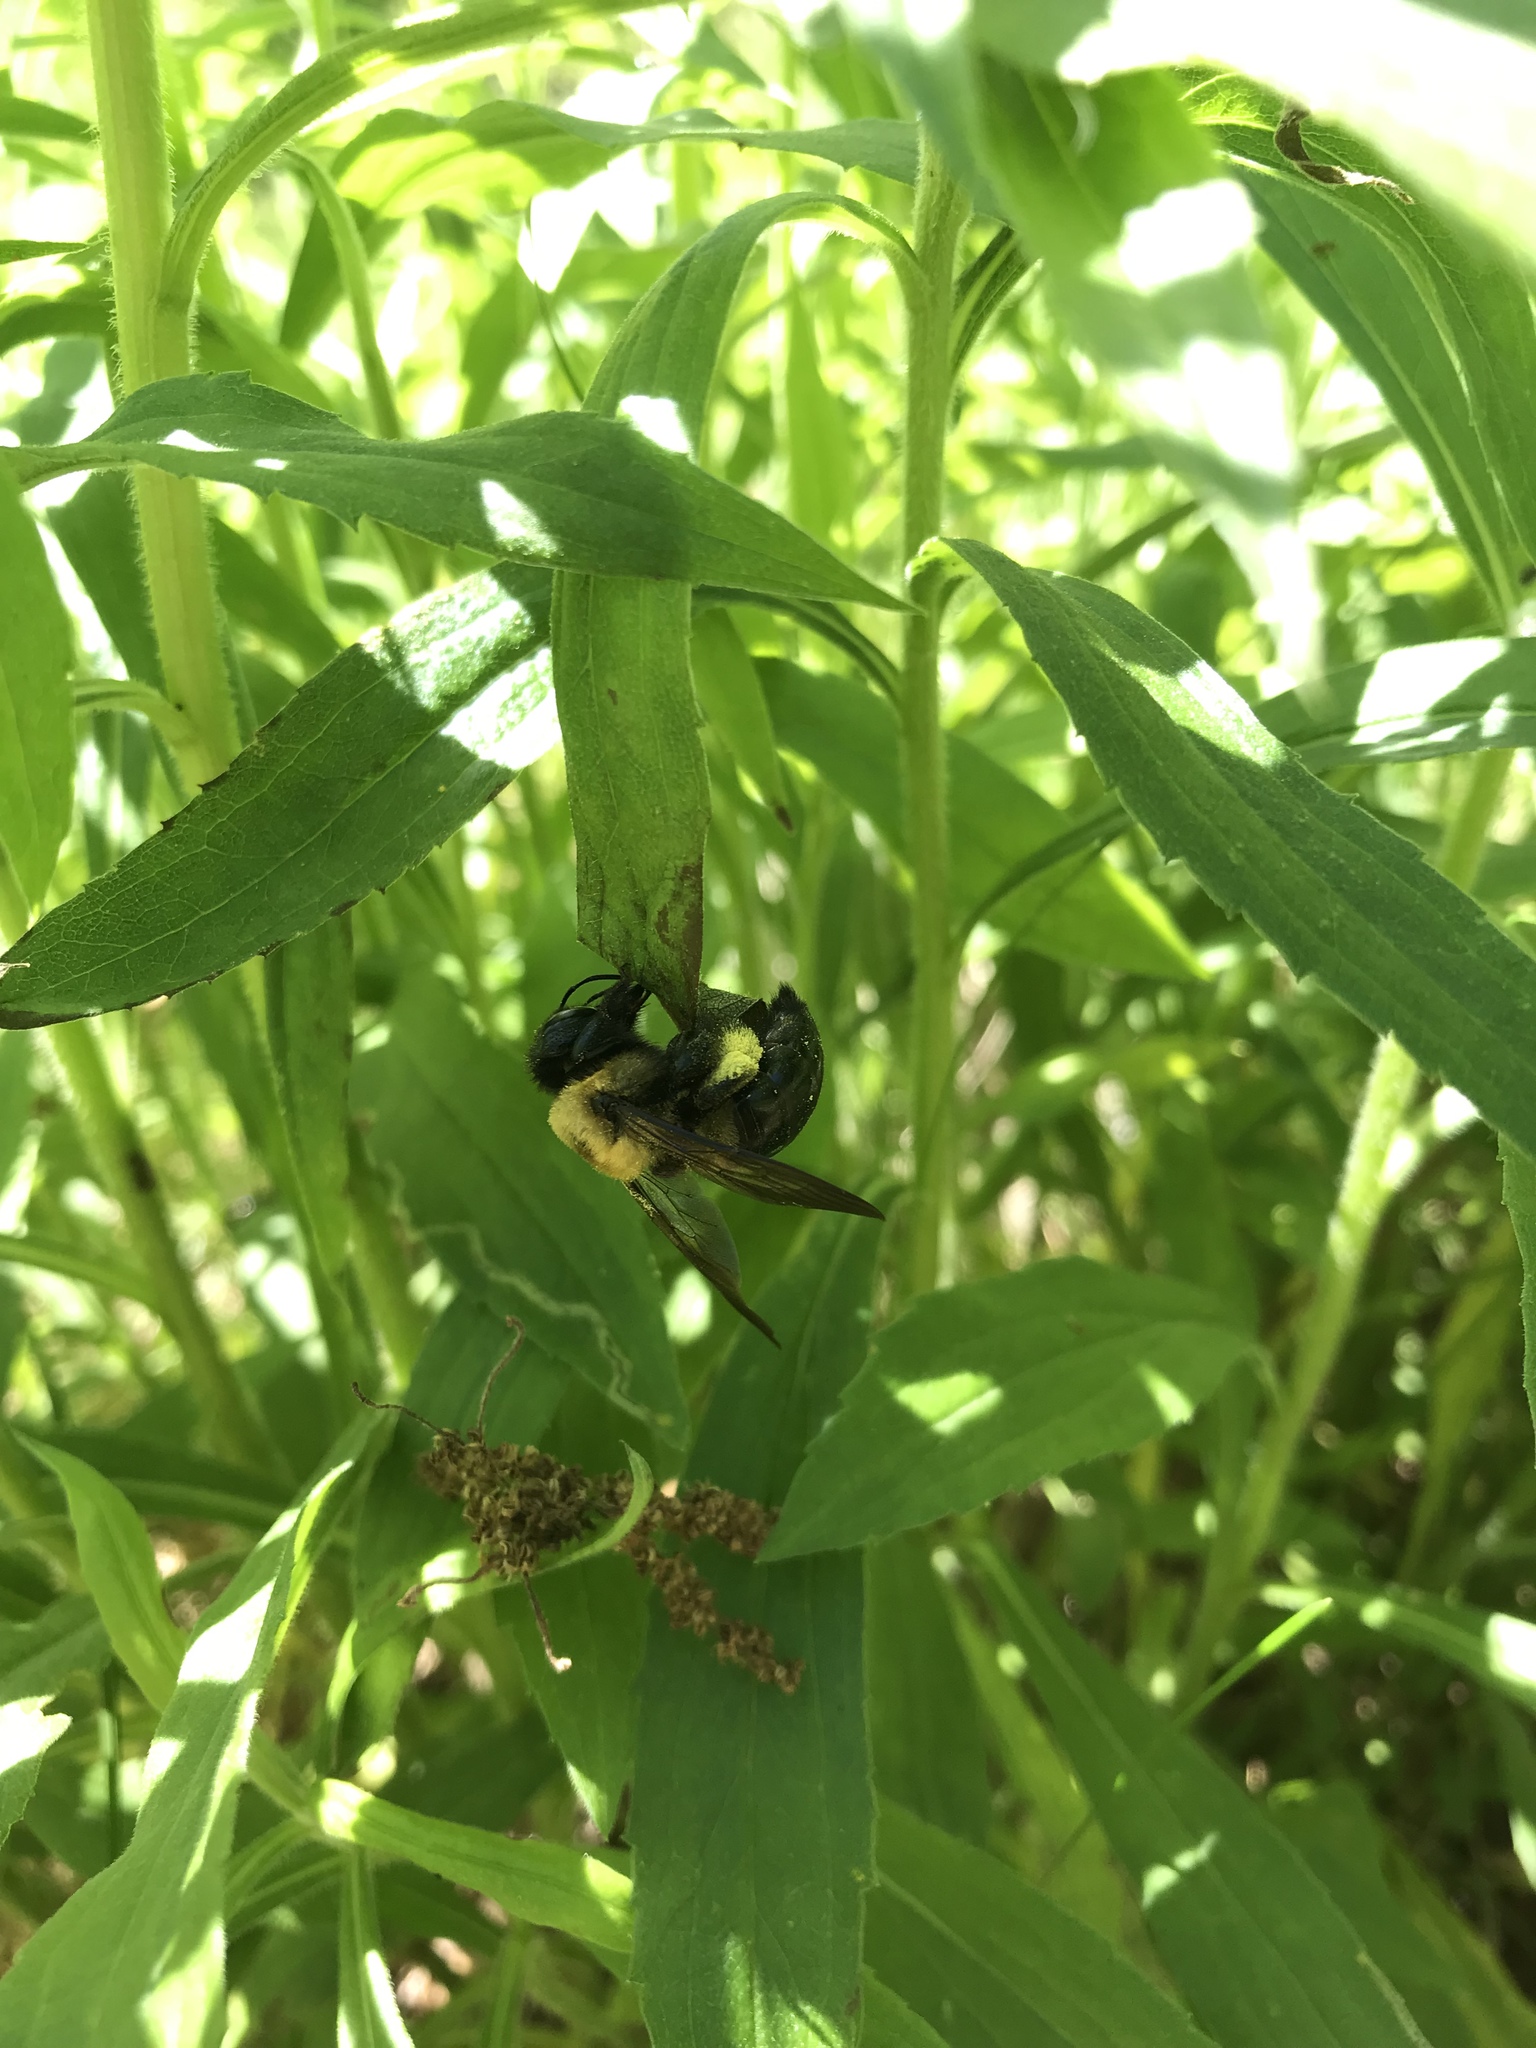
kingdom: Animalia
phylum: Arthropoda
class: Insecta
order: Hymenoptera
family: Apidae
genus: Xylocopa
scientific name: Xylocopa virginica
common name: Carpenter bee
